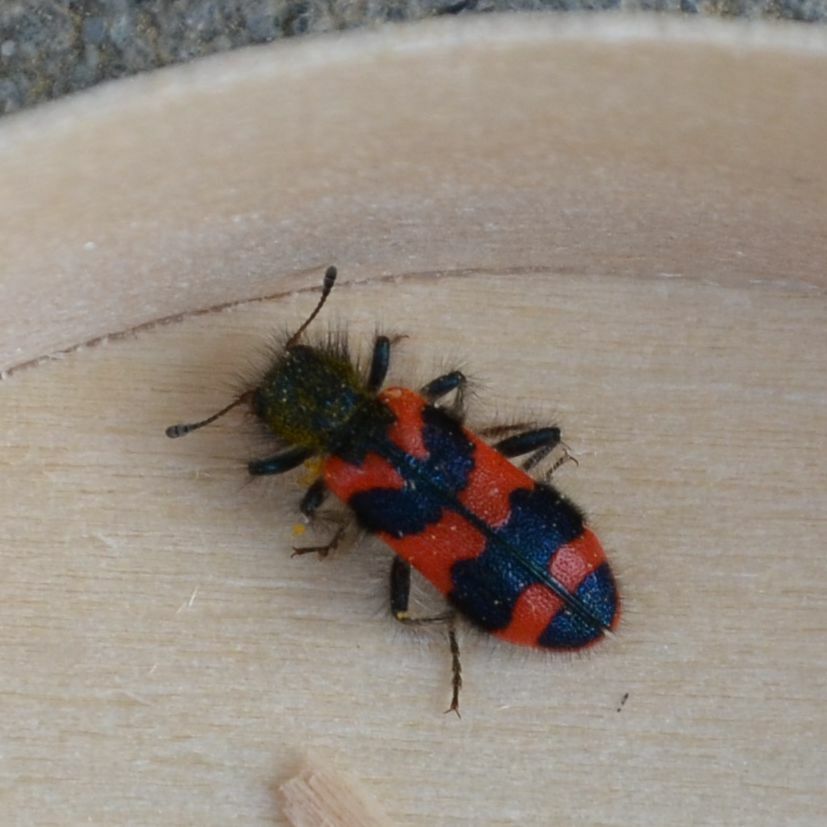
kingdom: Animalia
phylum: Arthropoda
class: Insecta
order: Coleoptera
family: Cleridae
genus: Trichodes
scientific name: Trichodes alvearius
